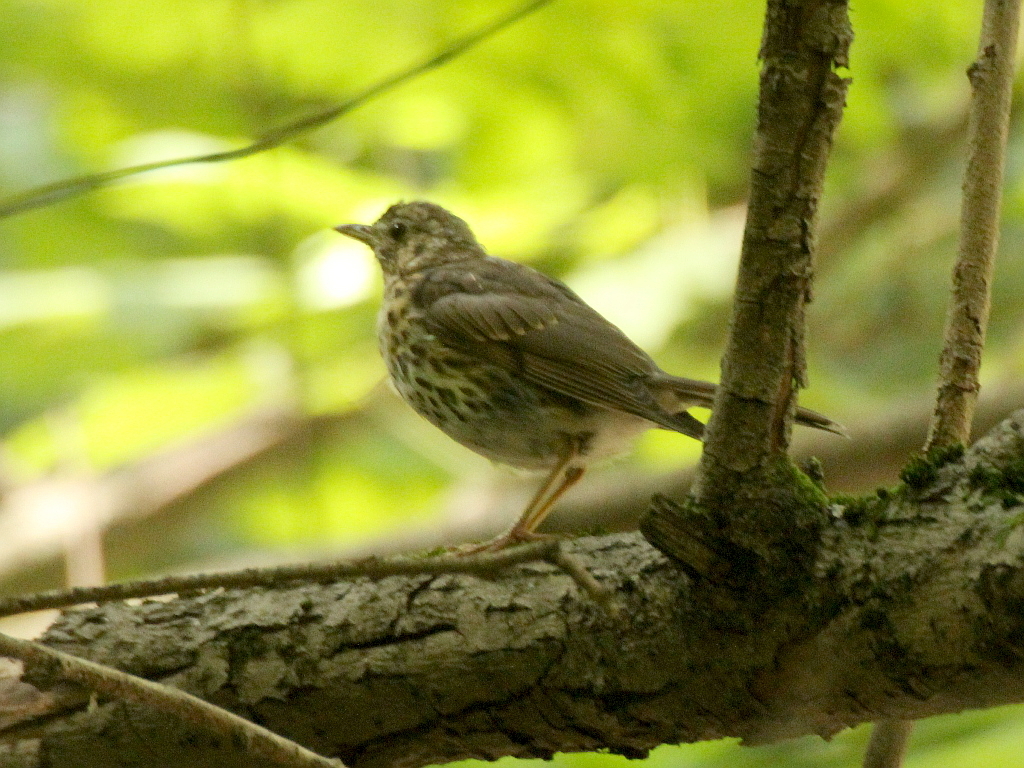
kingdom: Animalia
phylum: Chordata
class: Aves
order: Passeriformes
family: Turdidae
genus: Turdus
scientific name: Turdus philomelos
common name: Song thrush
